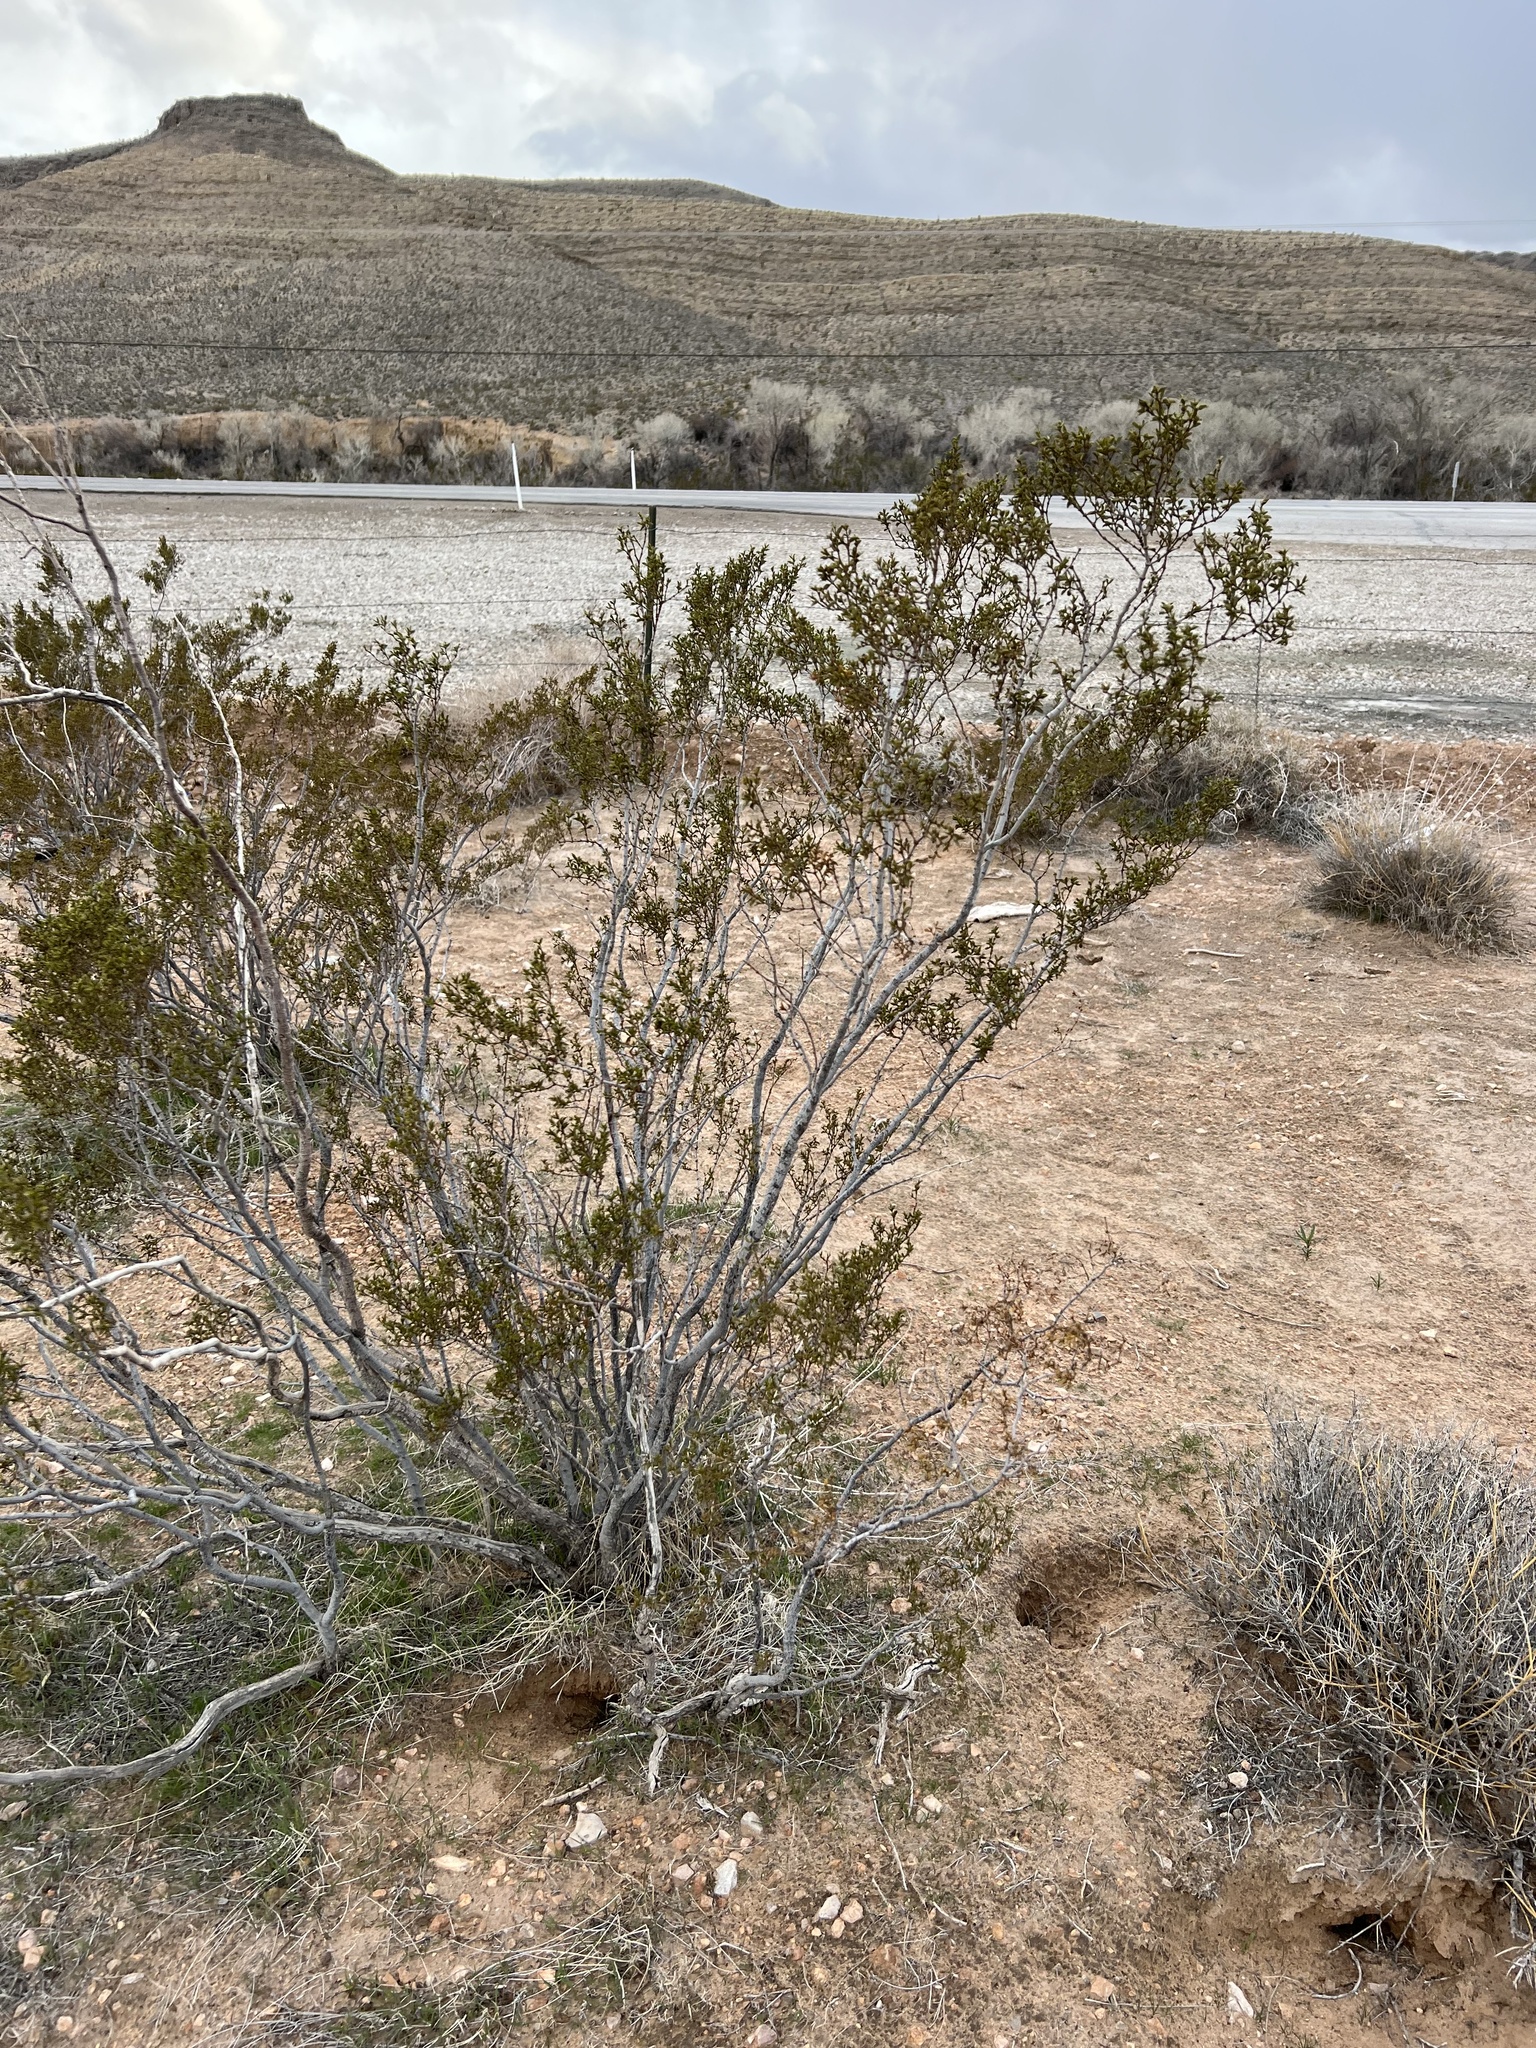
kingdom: Plantae
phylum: Tracheophyta
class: Magnoliopsida
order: Zygophyllales
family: Zygophyllaceae
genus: Larrea
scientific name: Larrea tridentata
